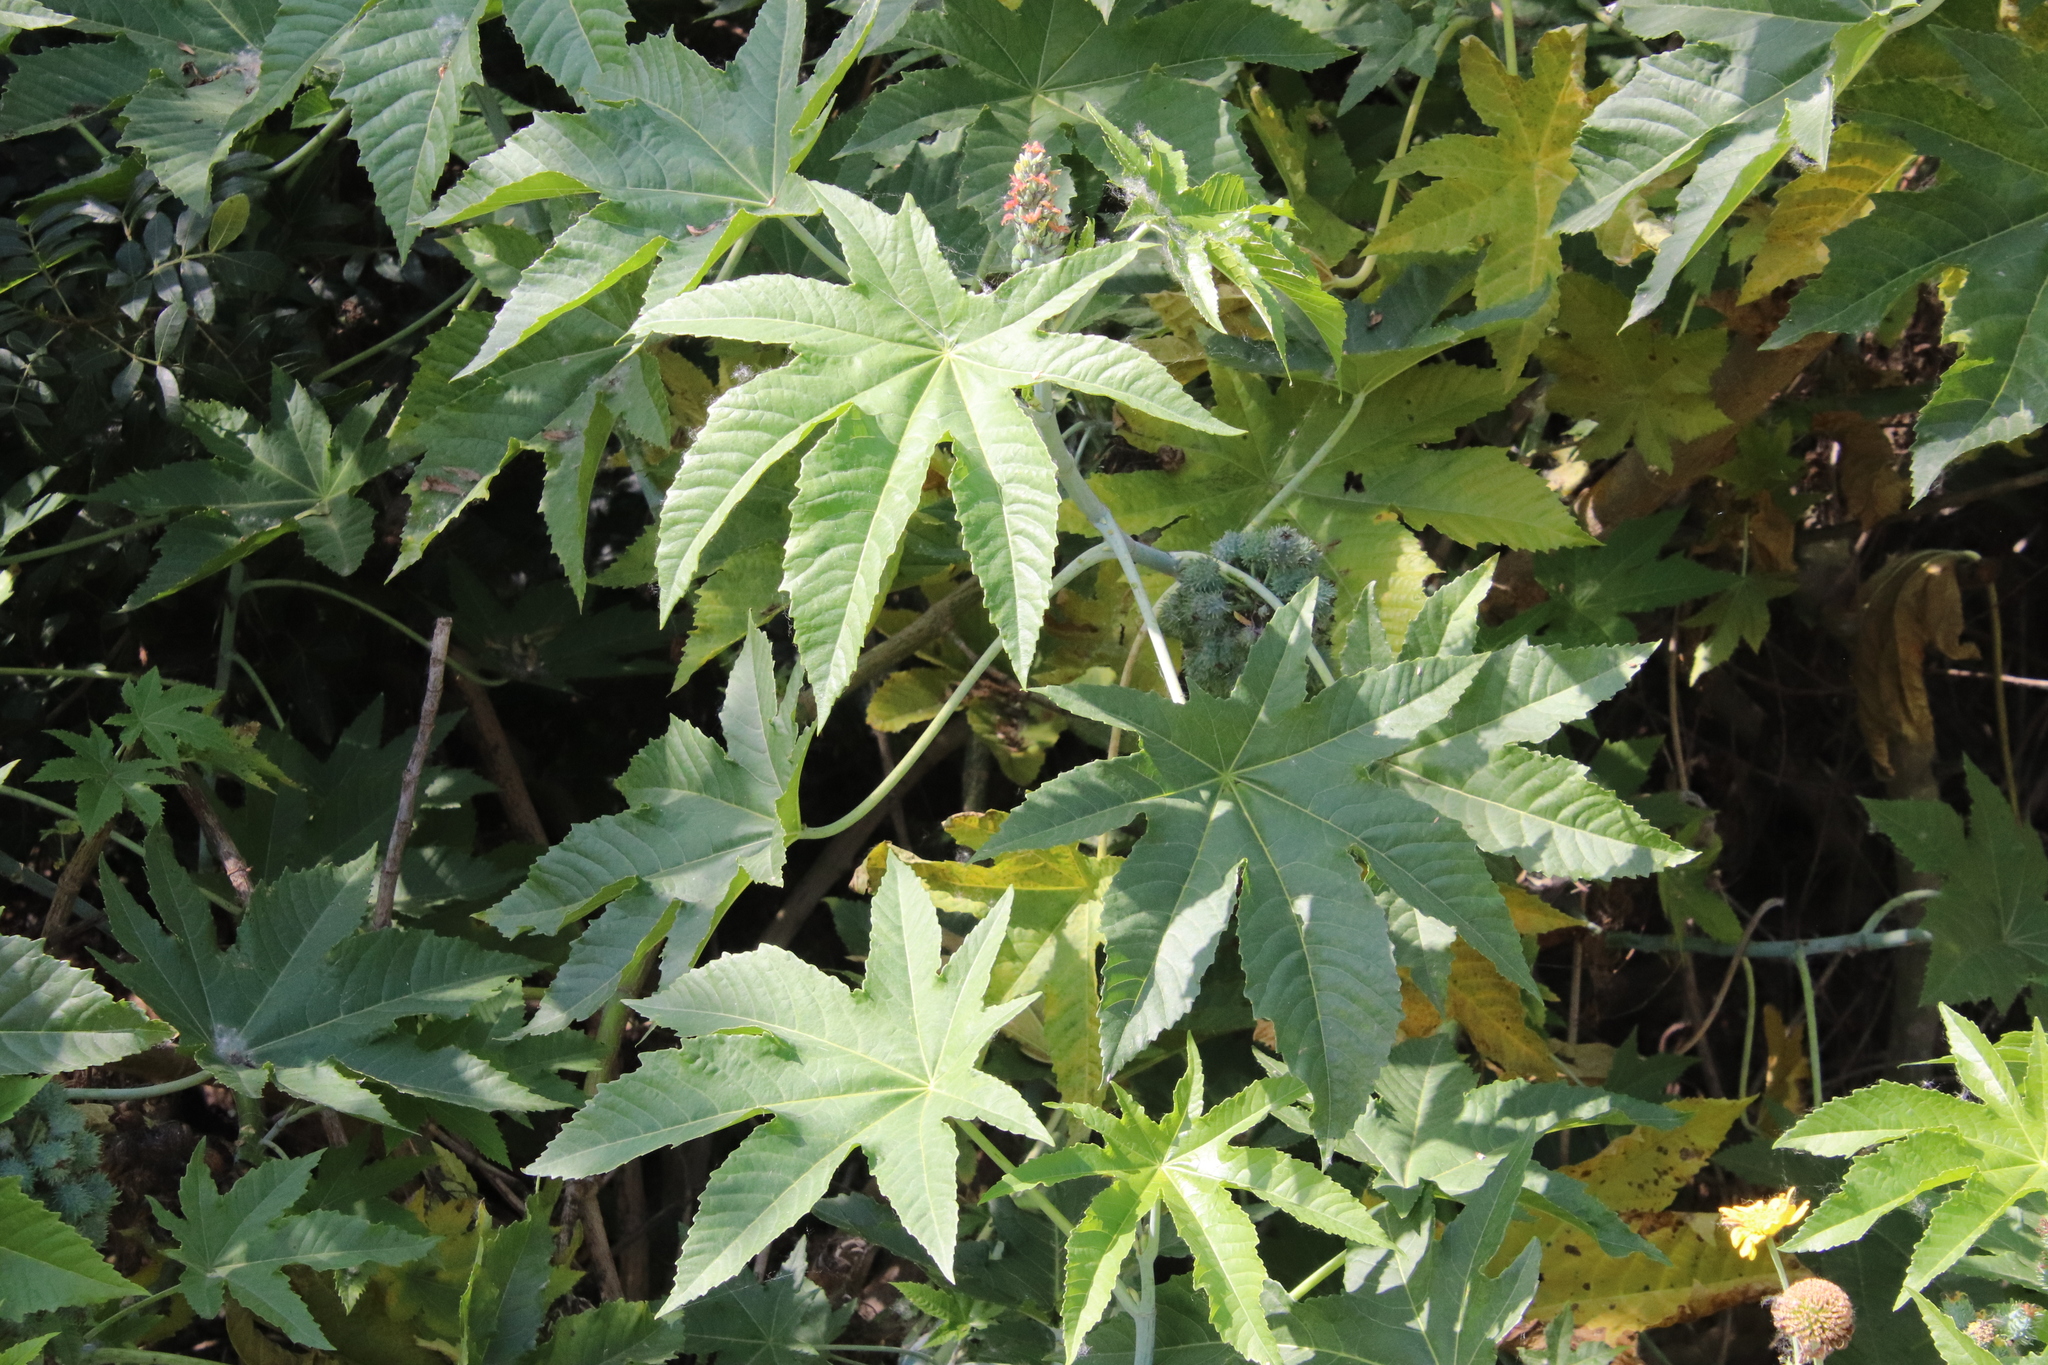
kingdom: Plantae
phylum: Tracheophyta
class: Magnoliopsida
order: Malpighiales
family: Euphorbiaceae
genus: Ricinus
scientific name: Ricinus communis
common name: Castor-oil-plant
